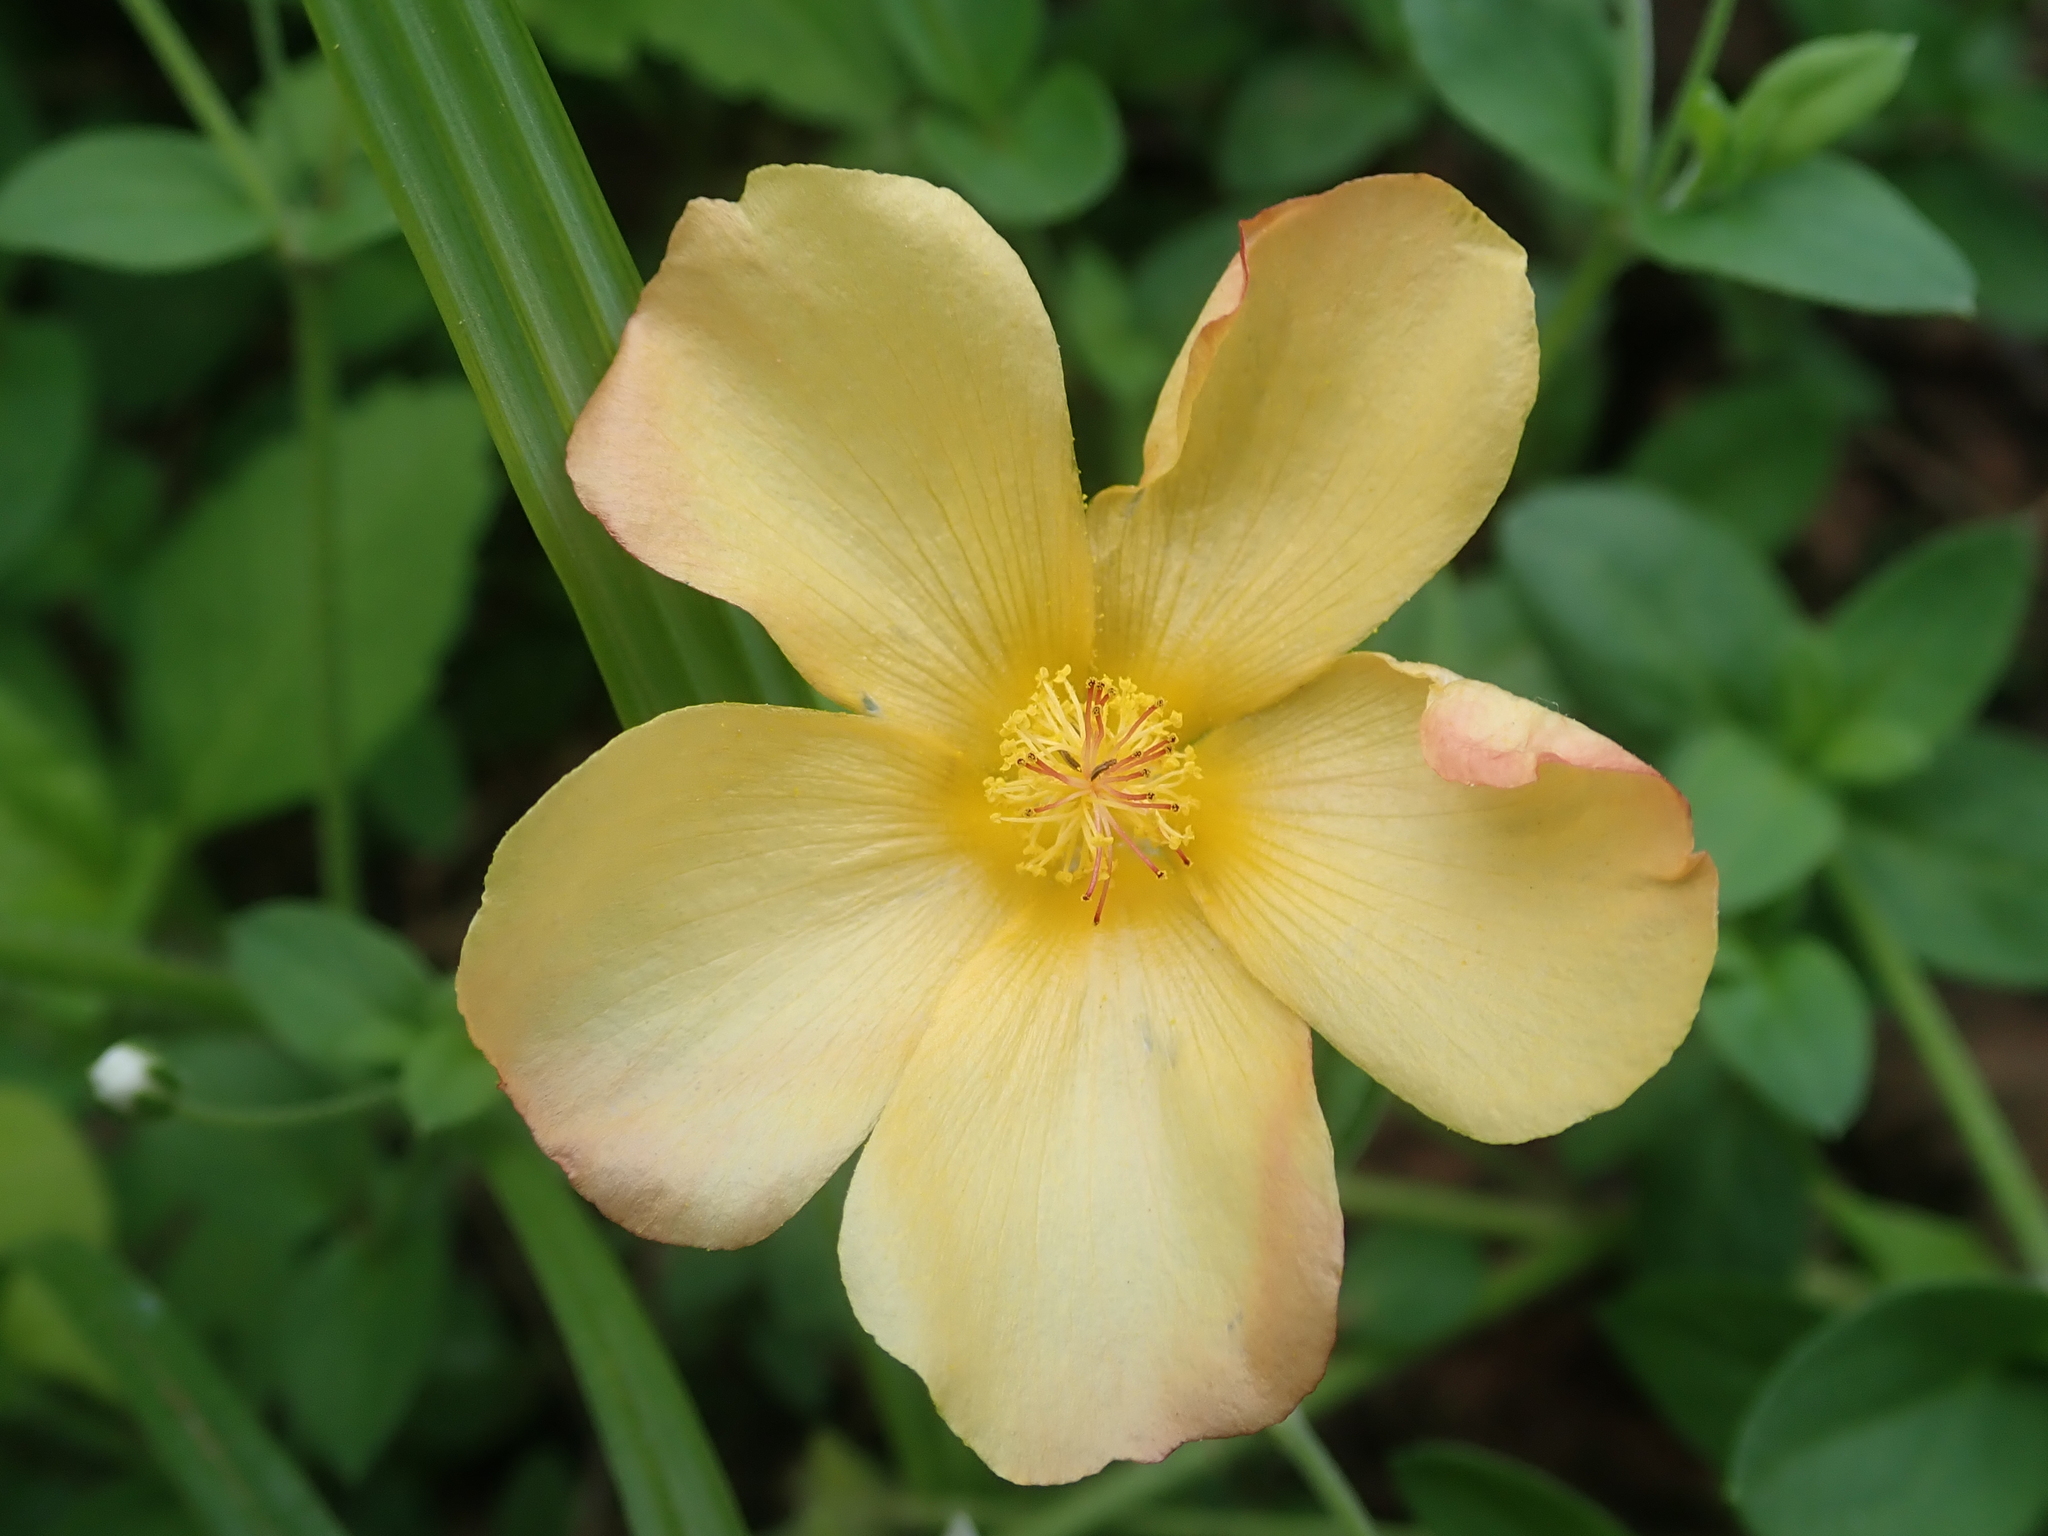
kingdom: Plantae
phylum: Tracheophyta
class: Magnoliopsida
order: Malvales
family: Malvaceae
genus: Modiolastrum
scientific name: Modiolastrum malvifolium
